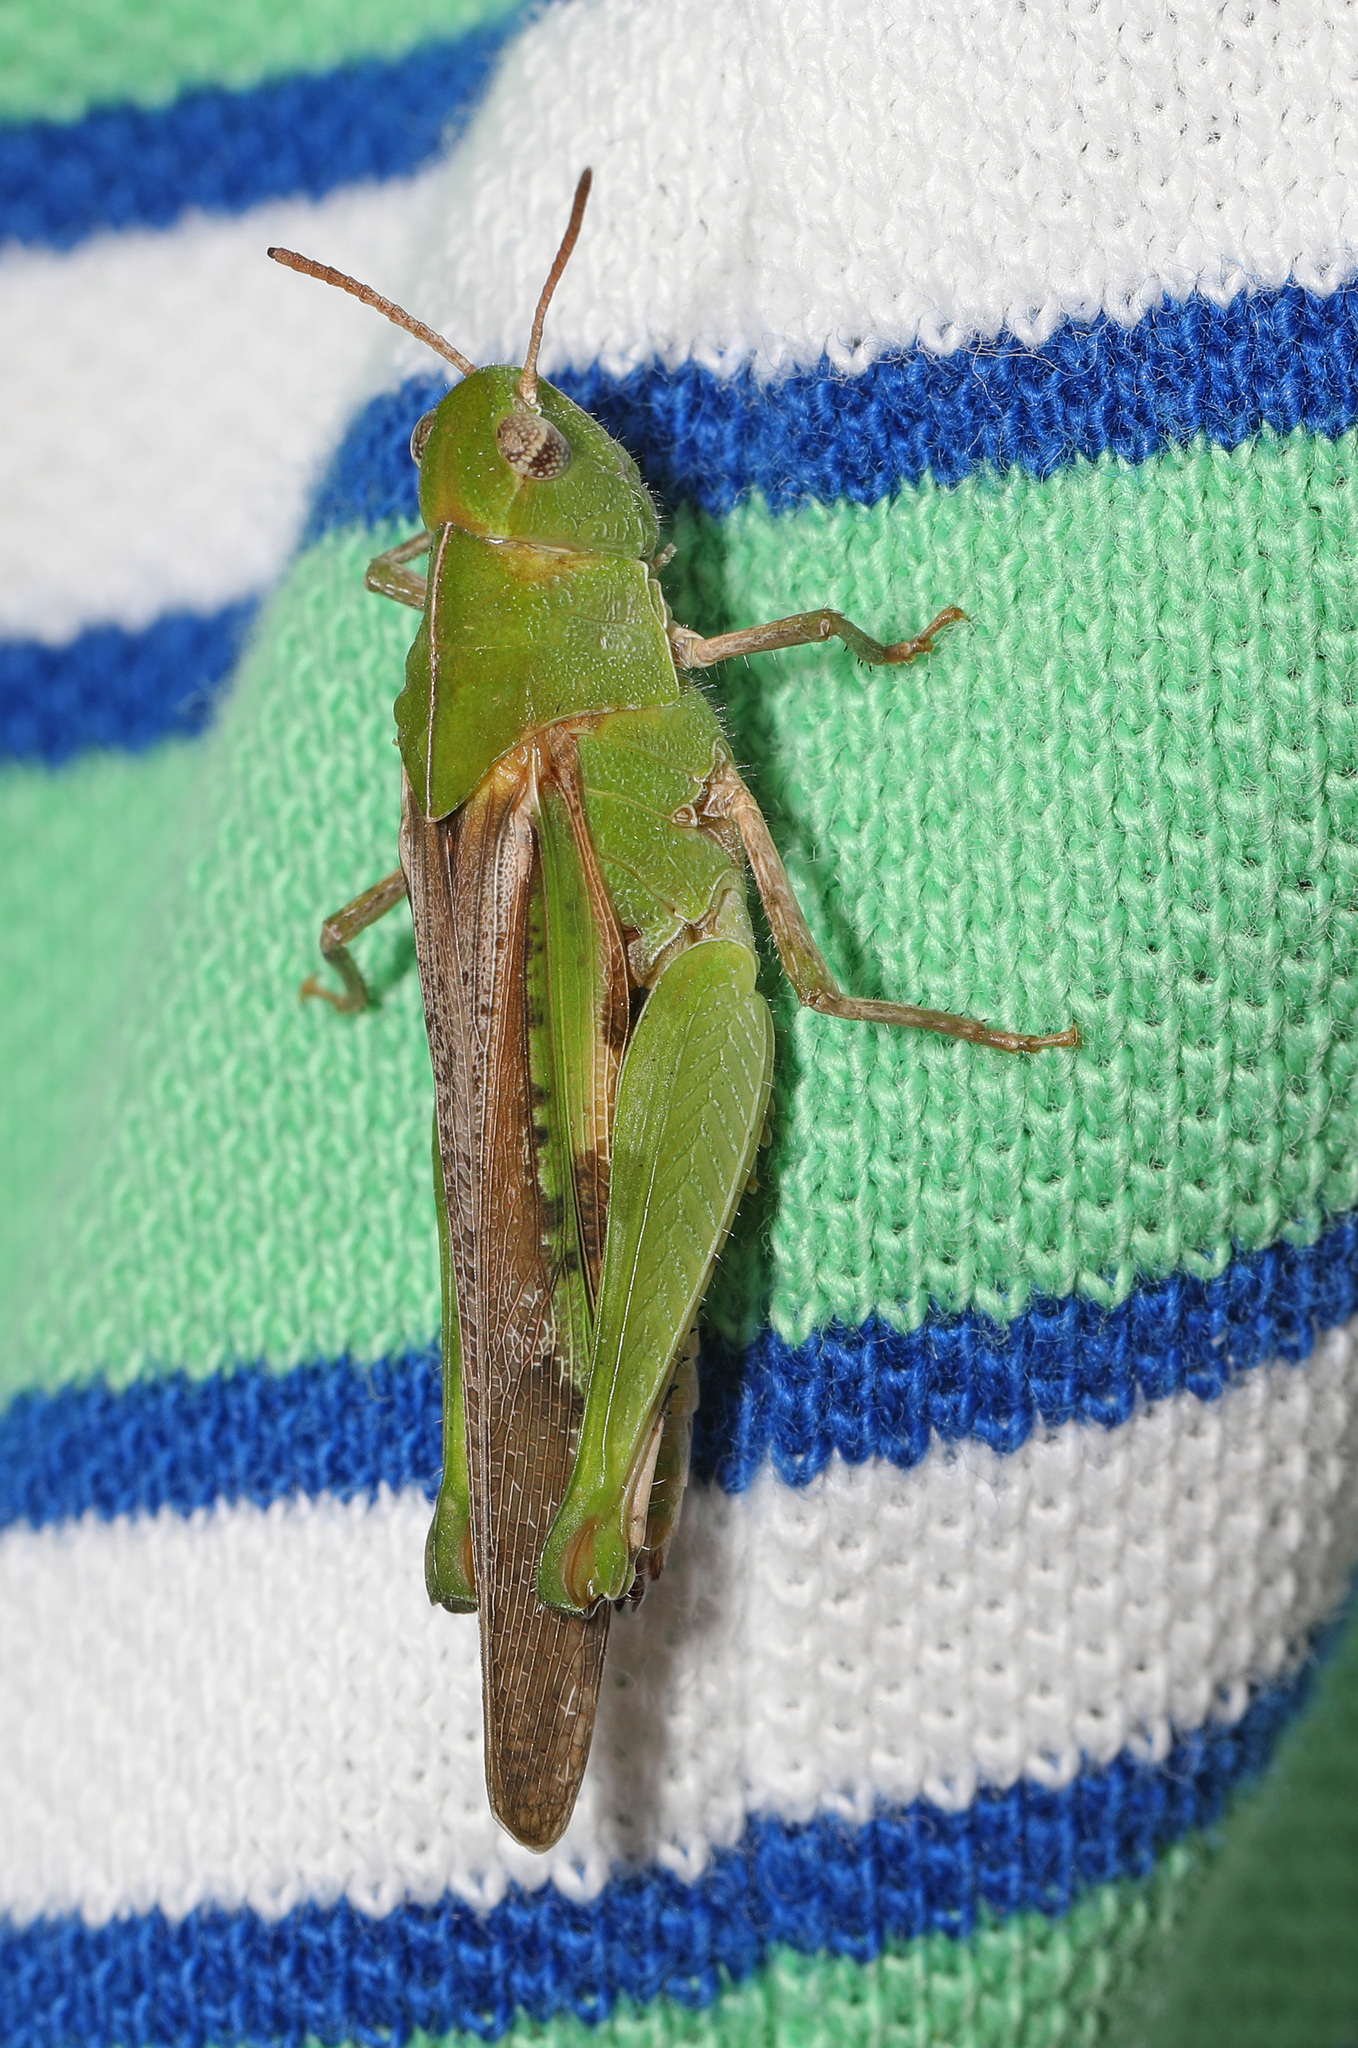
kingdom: Animalia
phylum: Arthropoda
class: Insecta
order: Orthoptera
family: Acrididae
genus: Chortophaga
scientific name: Chortophaga viridifasciata
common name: Green-striped grasshopper
